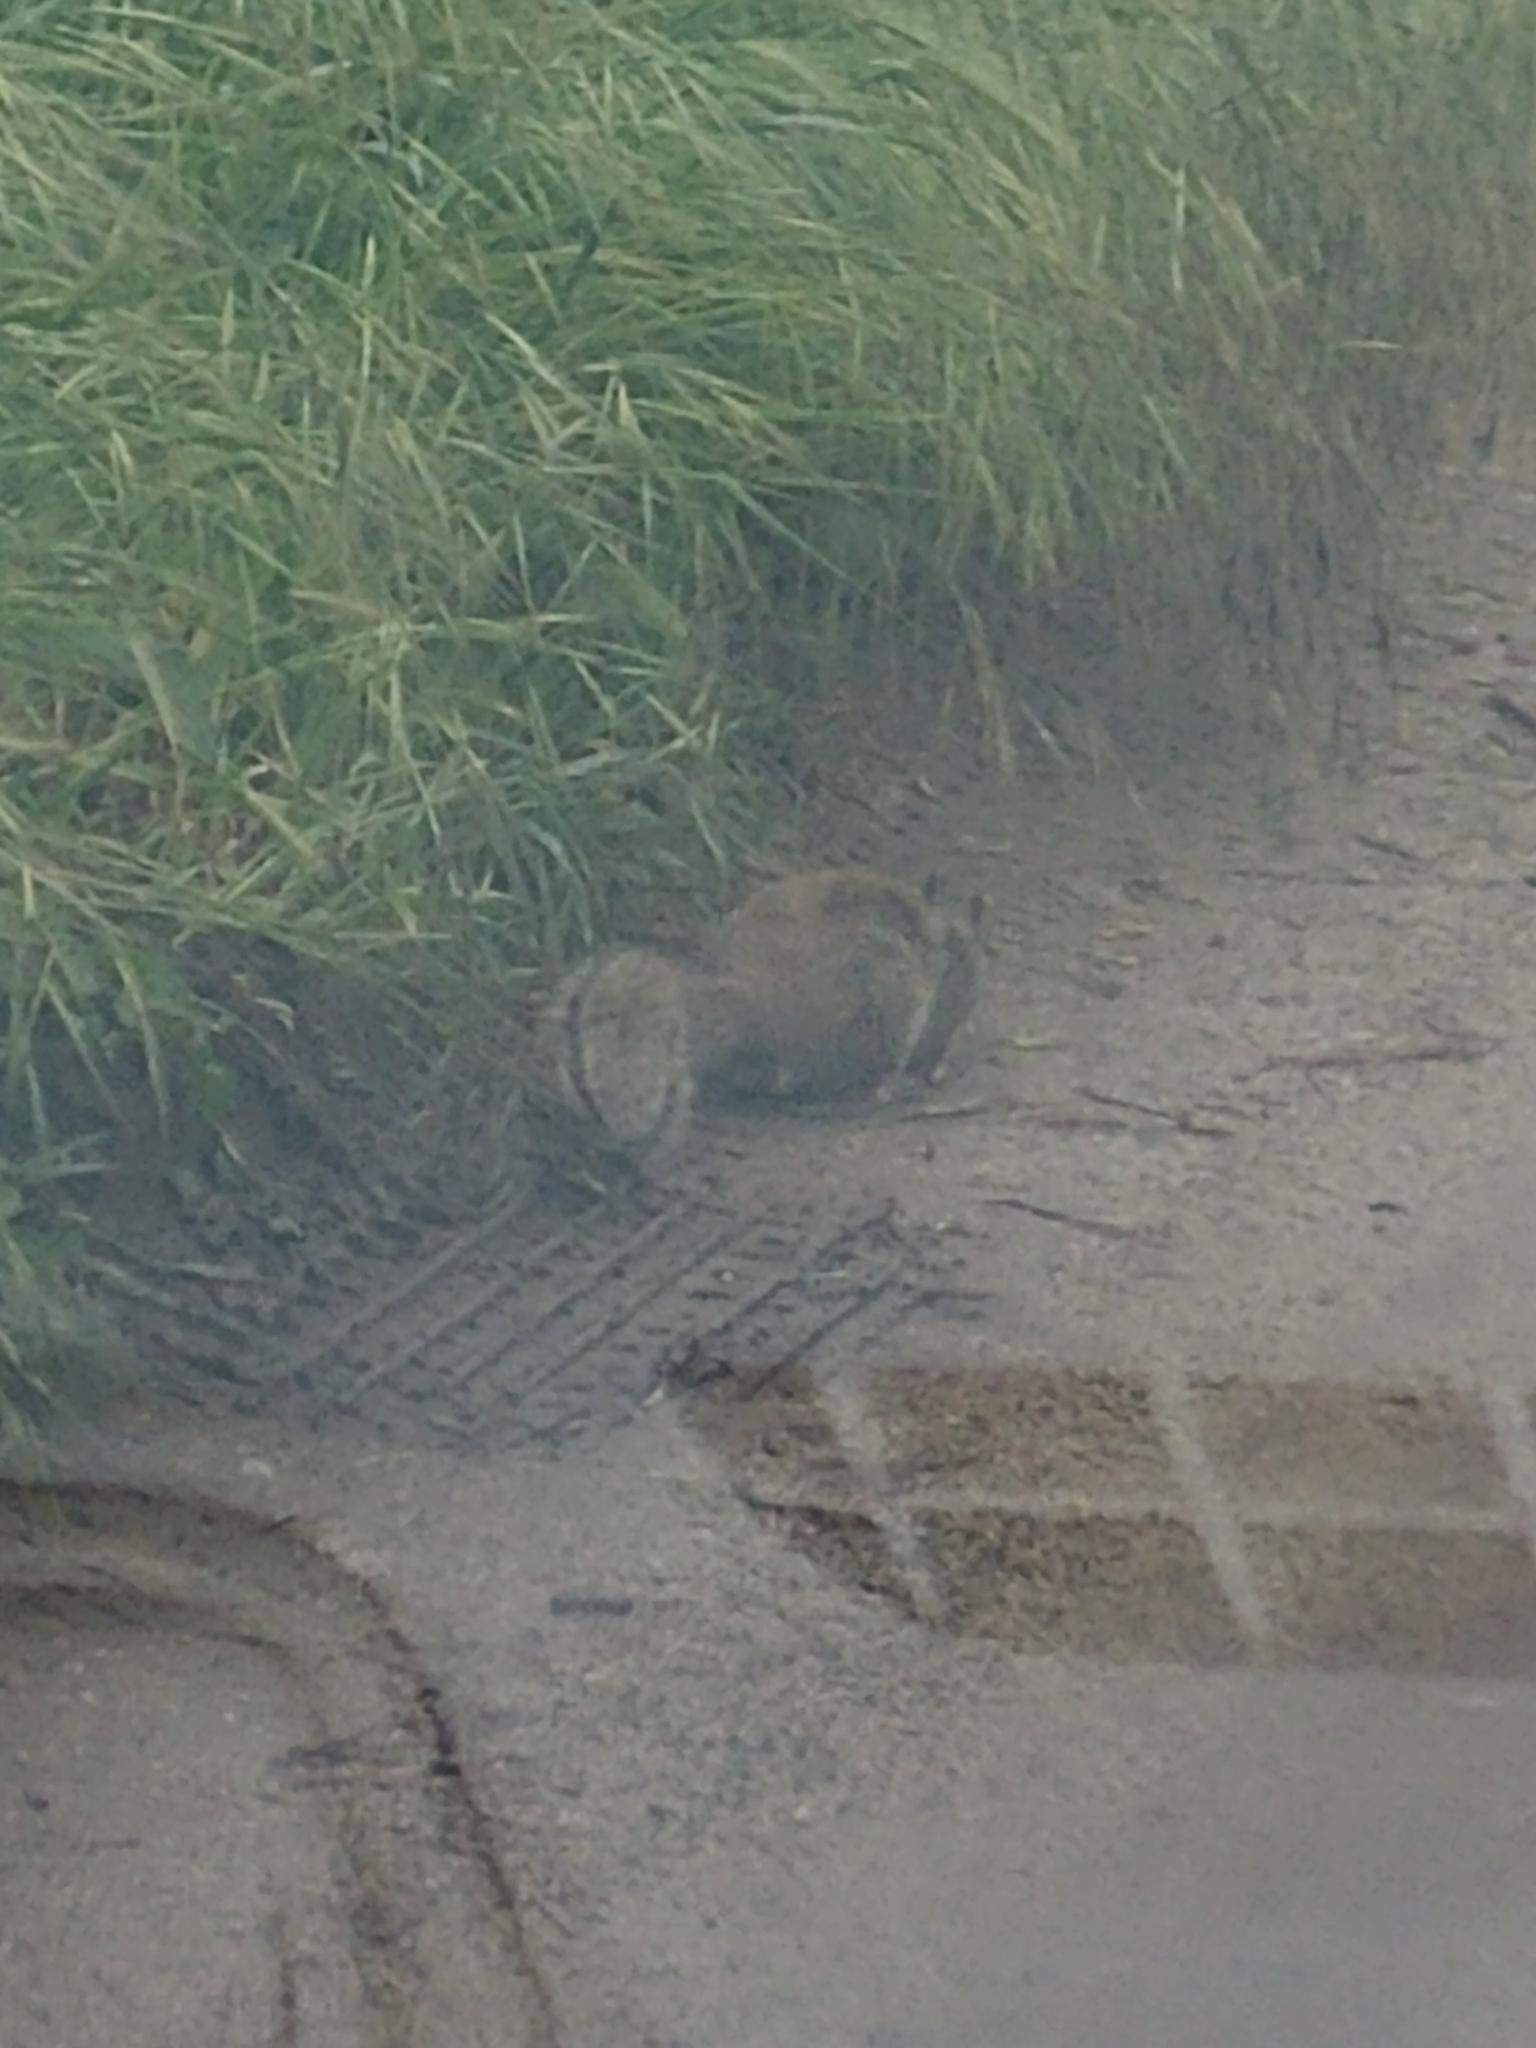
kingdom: Animalia
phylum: Chordata
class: Mammalia
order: Rodentia
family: Sciuridae
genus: Otospermophilus
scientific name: Otospermophilus beecheyi
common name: California ground squirrel
